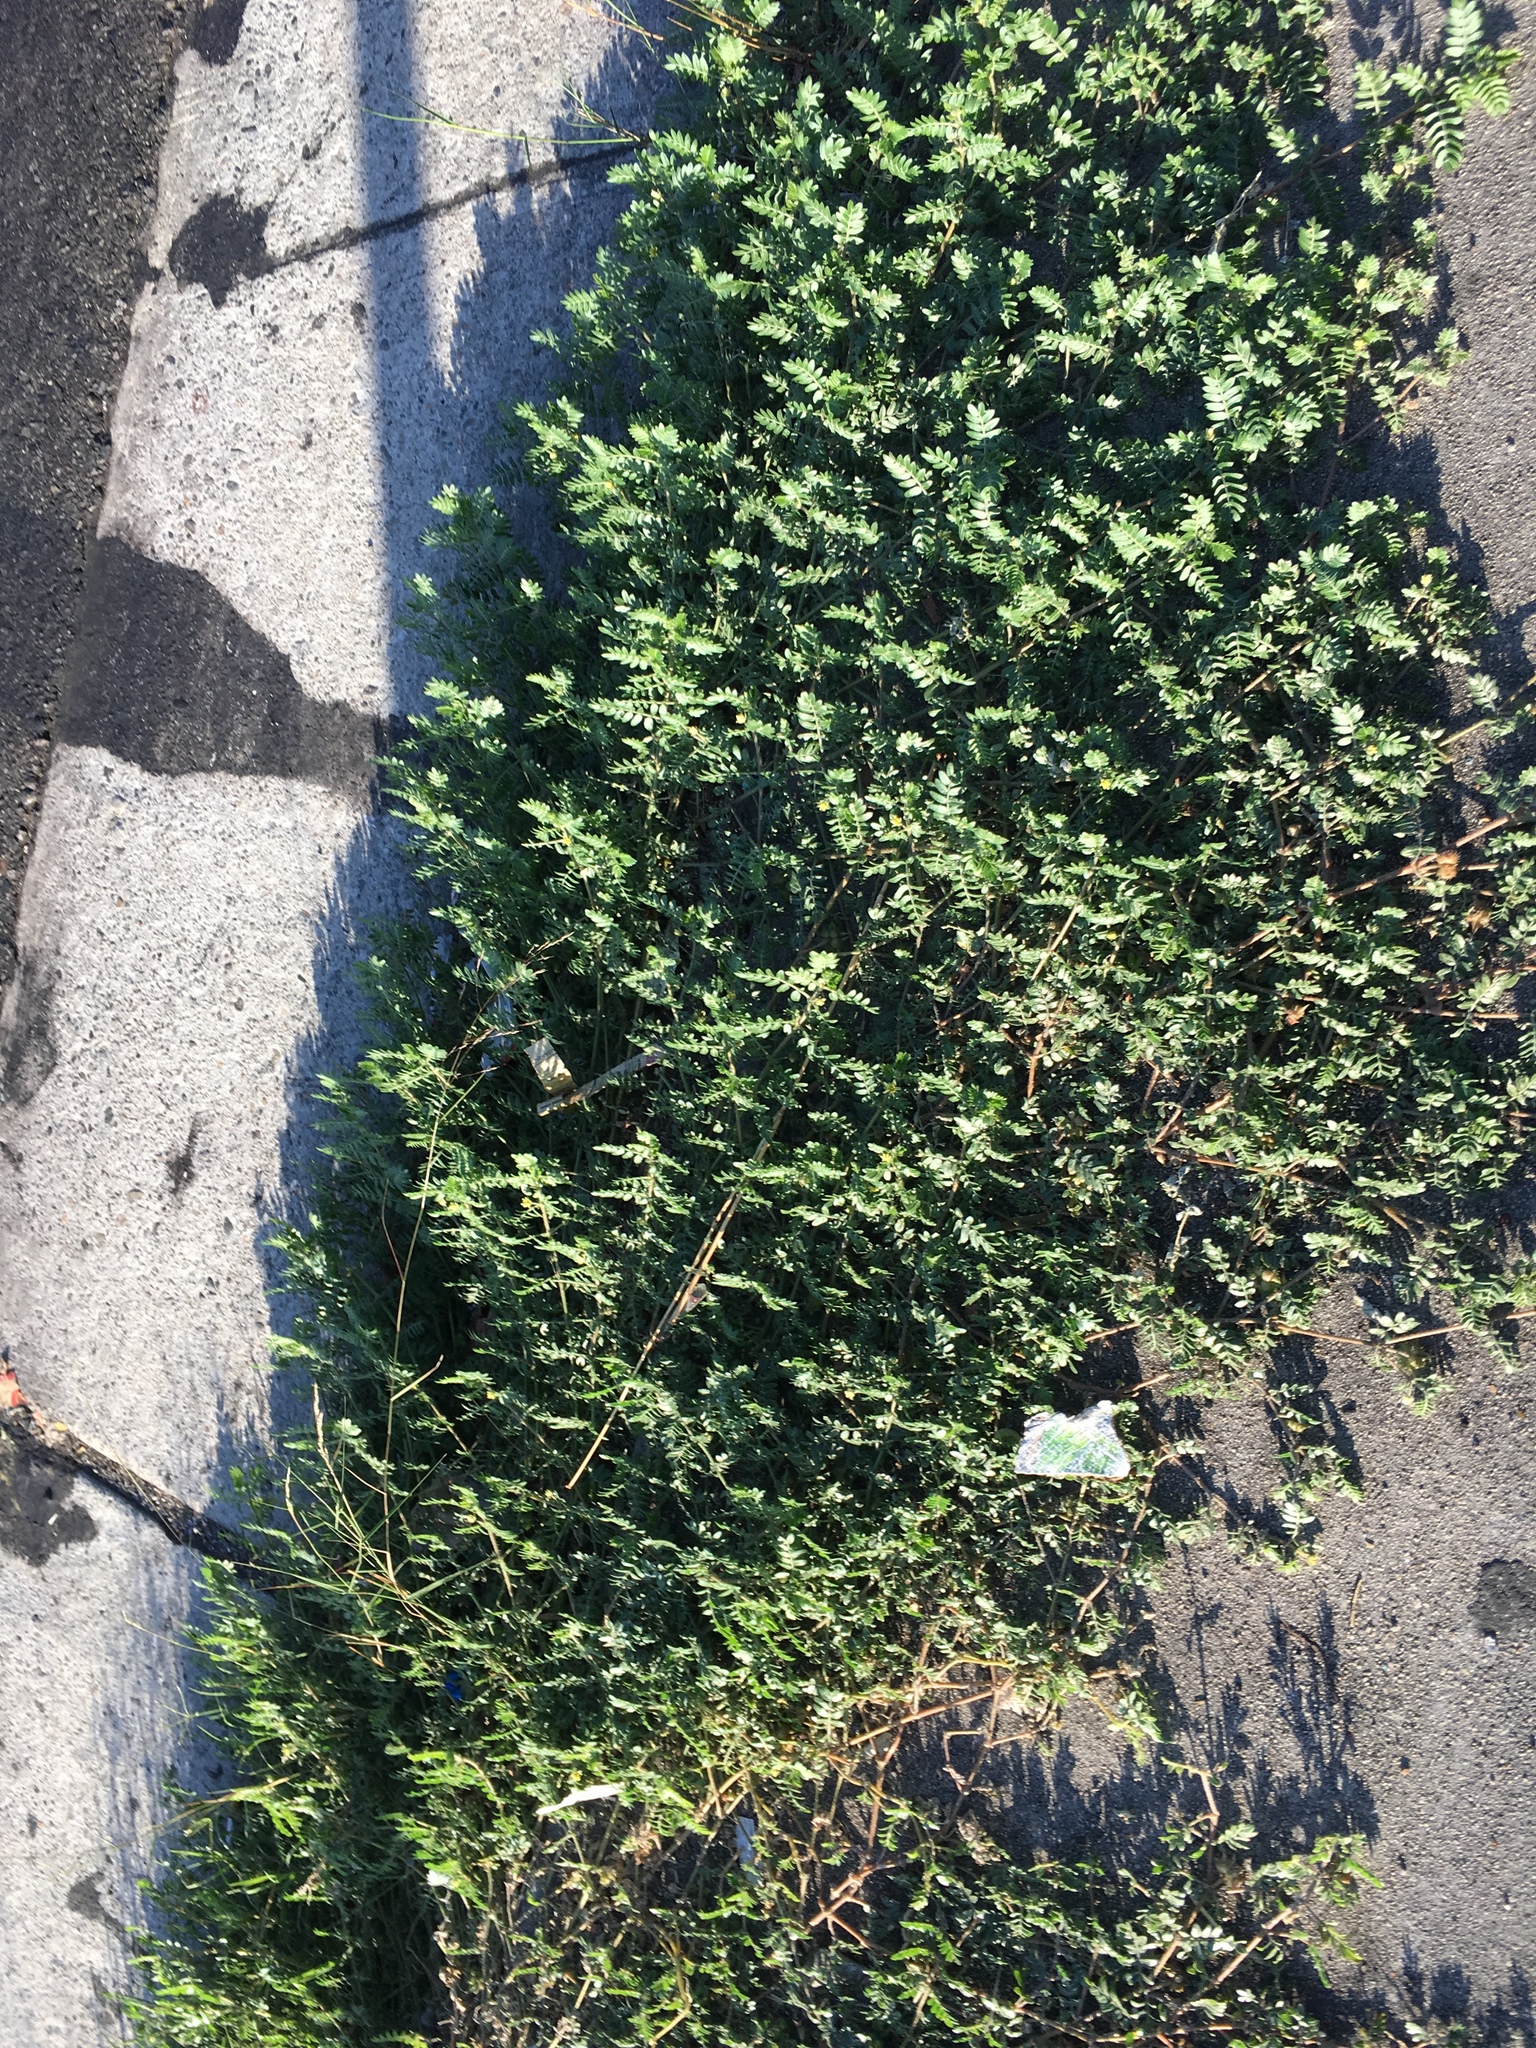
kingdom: Plantae
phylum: Tracheophyta
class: Magnoliopsida
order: Zygophyllales
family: Zygophyllaceae
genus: Tribulus
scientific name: Tribulus terrestris
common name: Puncturevine
